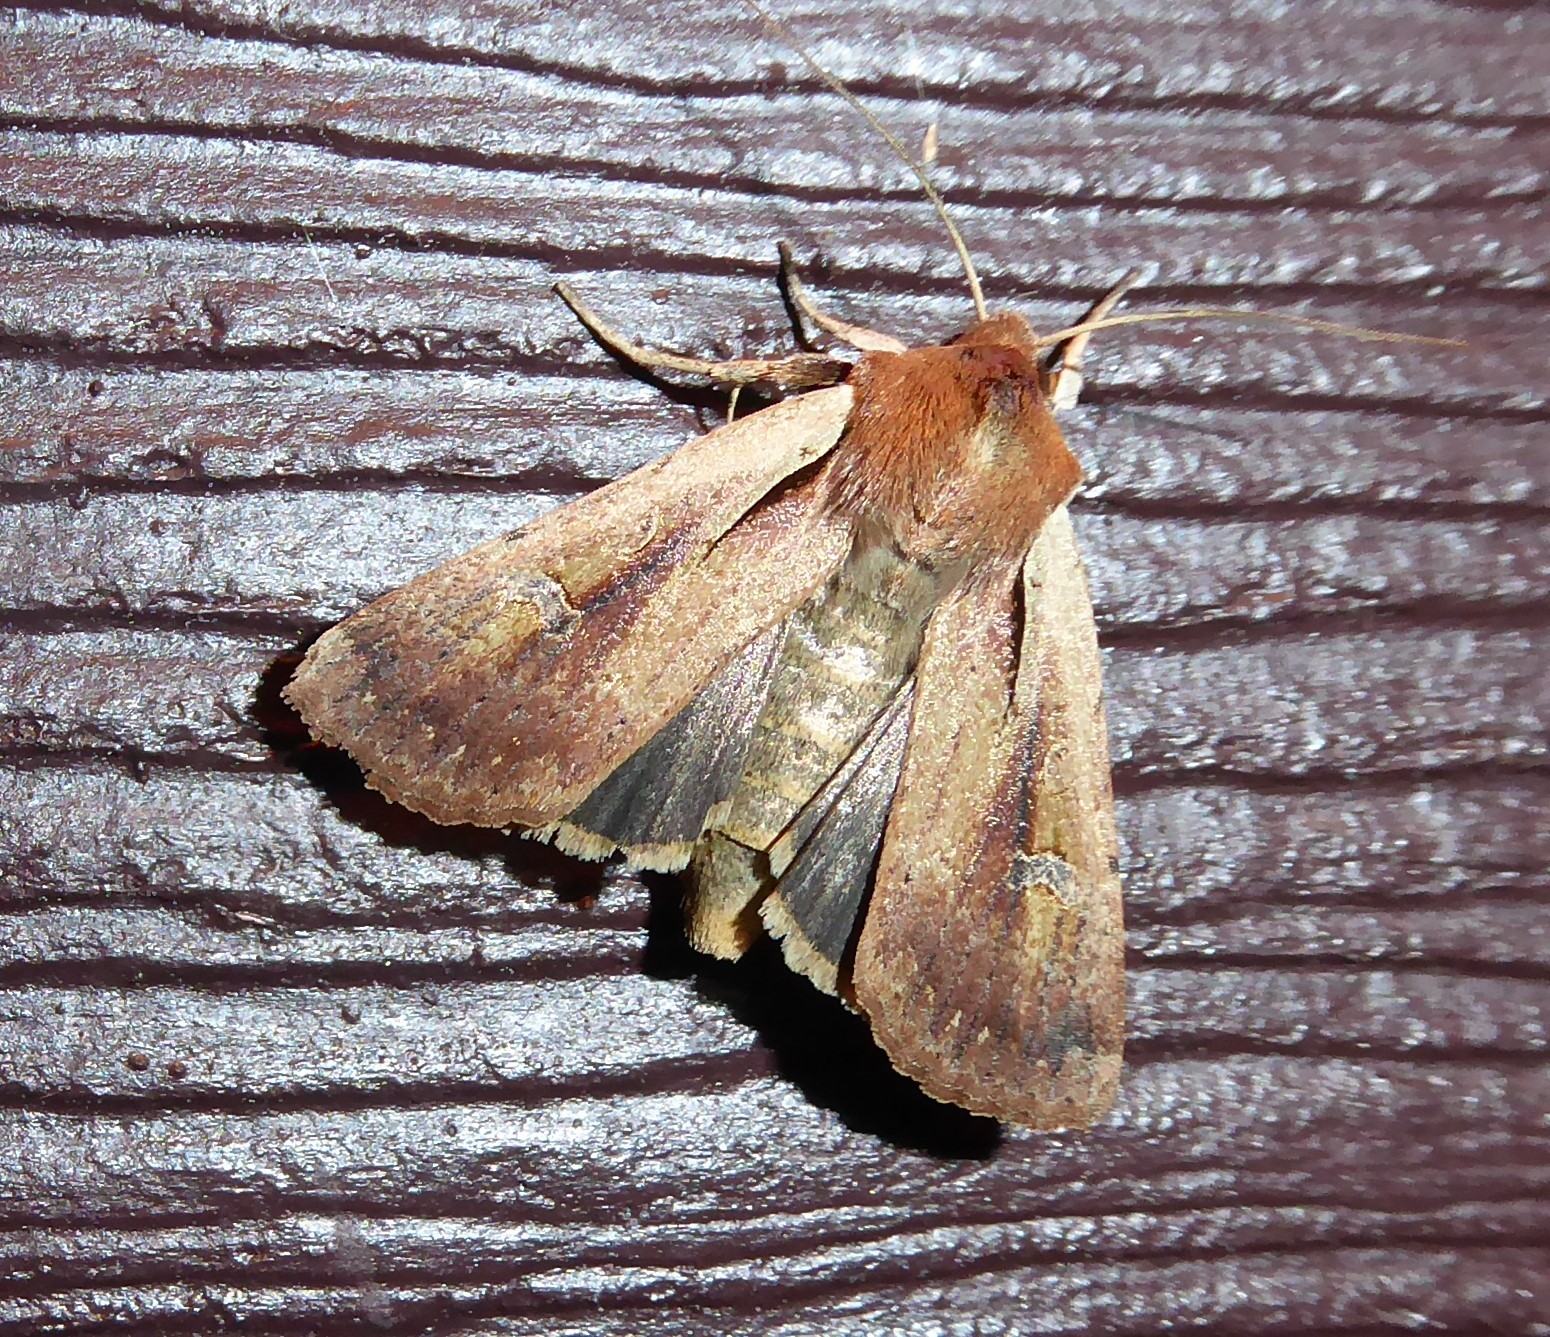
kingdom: Animalia
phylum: Arthropoda
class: Insecta
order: Lepidoptera
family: Noctuidae
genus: Ichneutica
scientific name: Ichneutica atristriga
